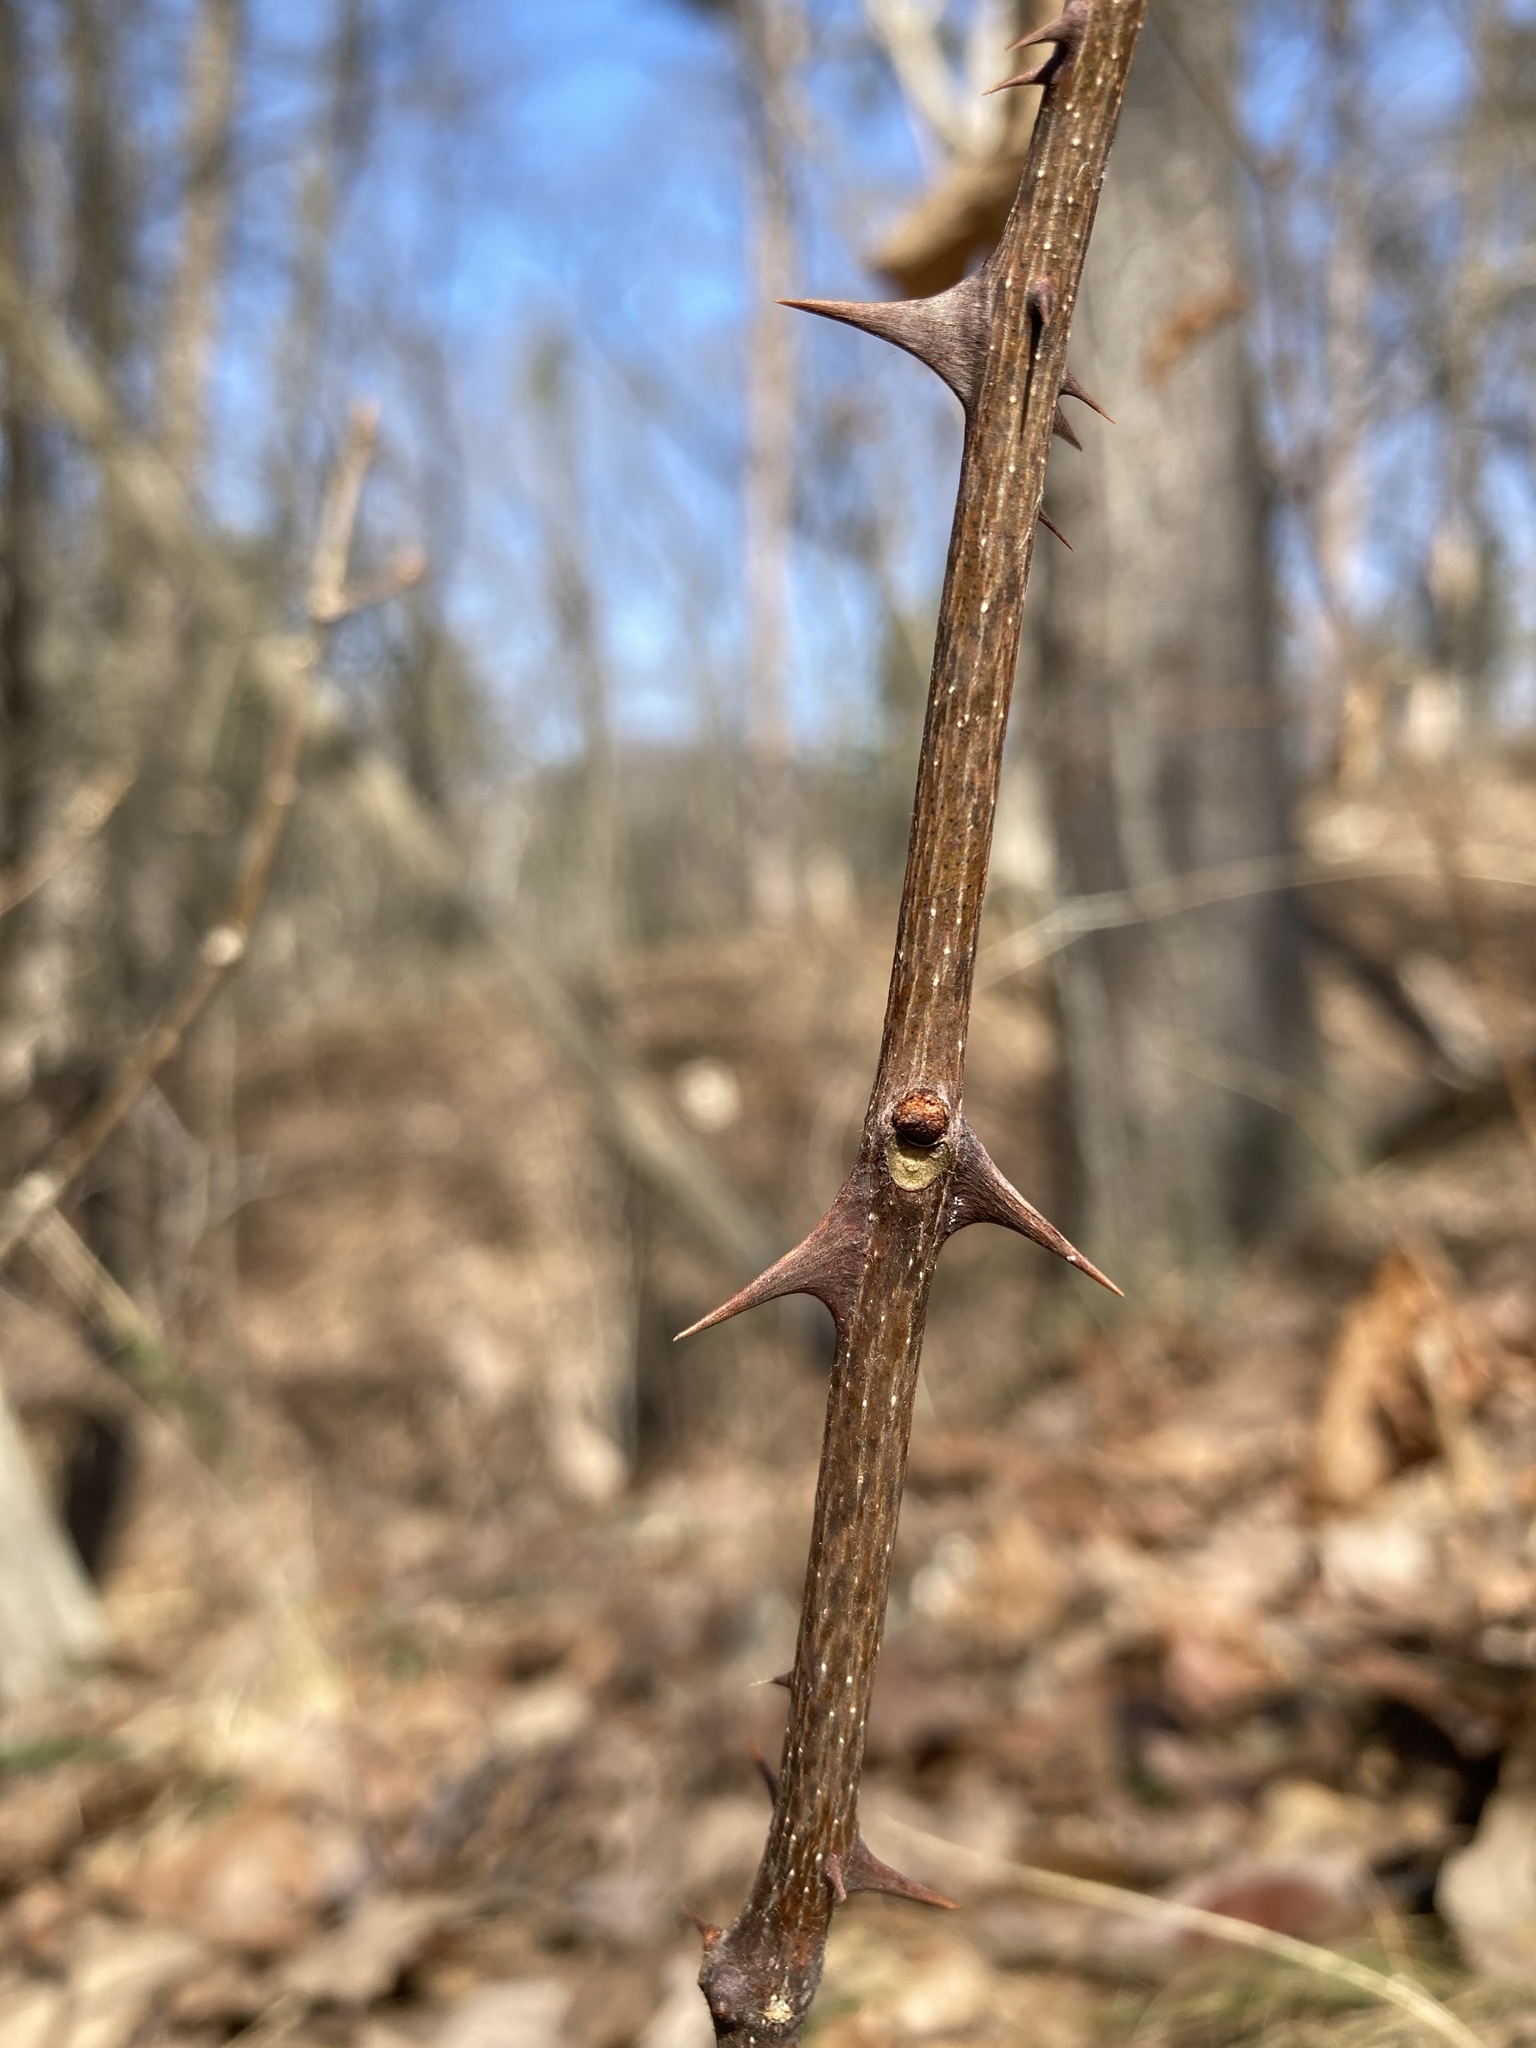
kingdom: Plantae
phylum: Tracheophyta
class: Magnoliopsida
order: Sapindales
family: Rutaceae
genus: Zanthoxylum
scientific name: Zanthoxylum americanum
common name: Northern prickly-ash
